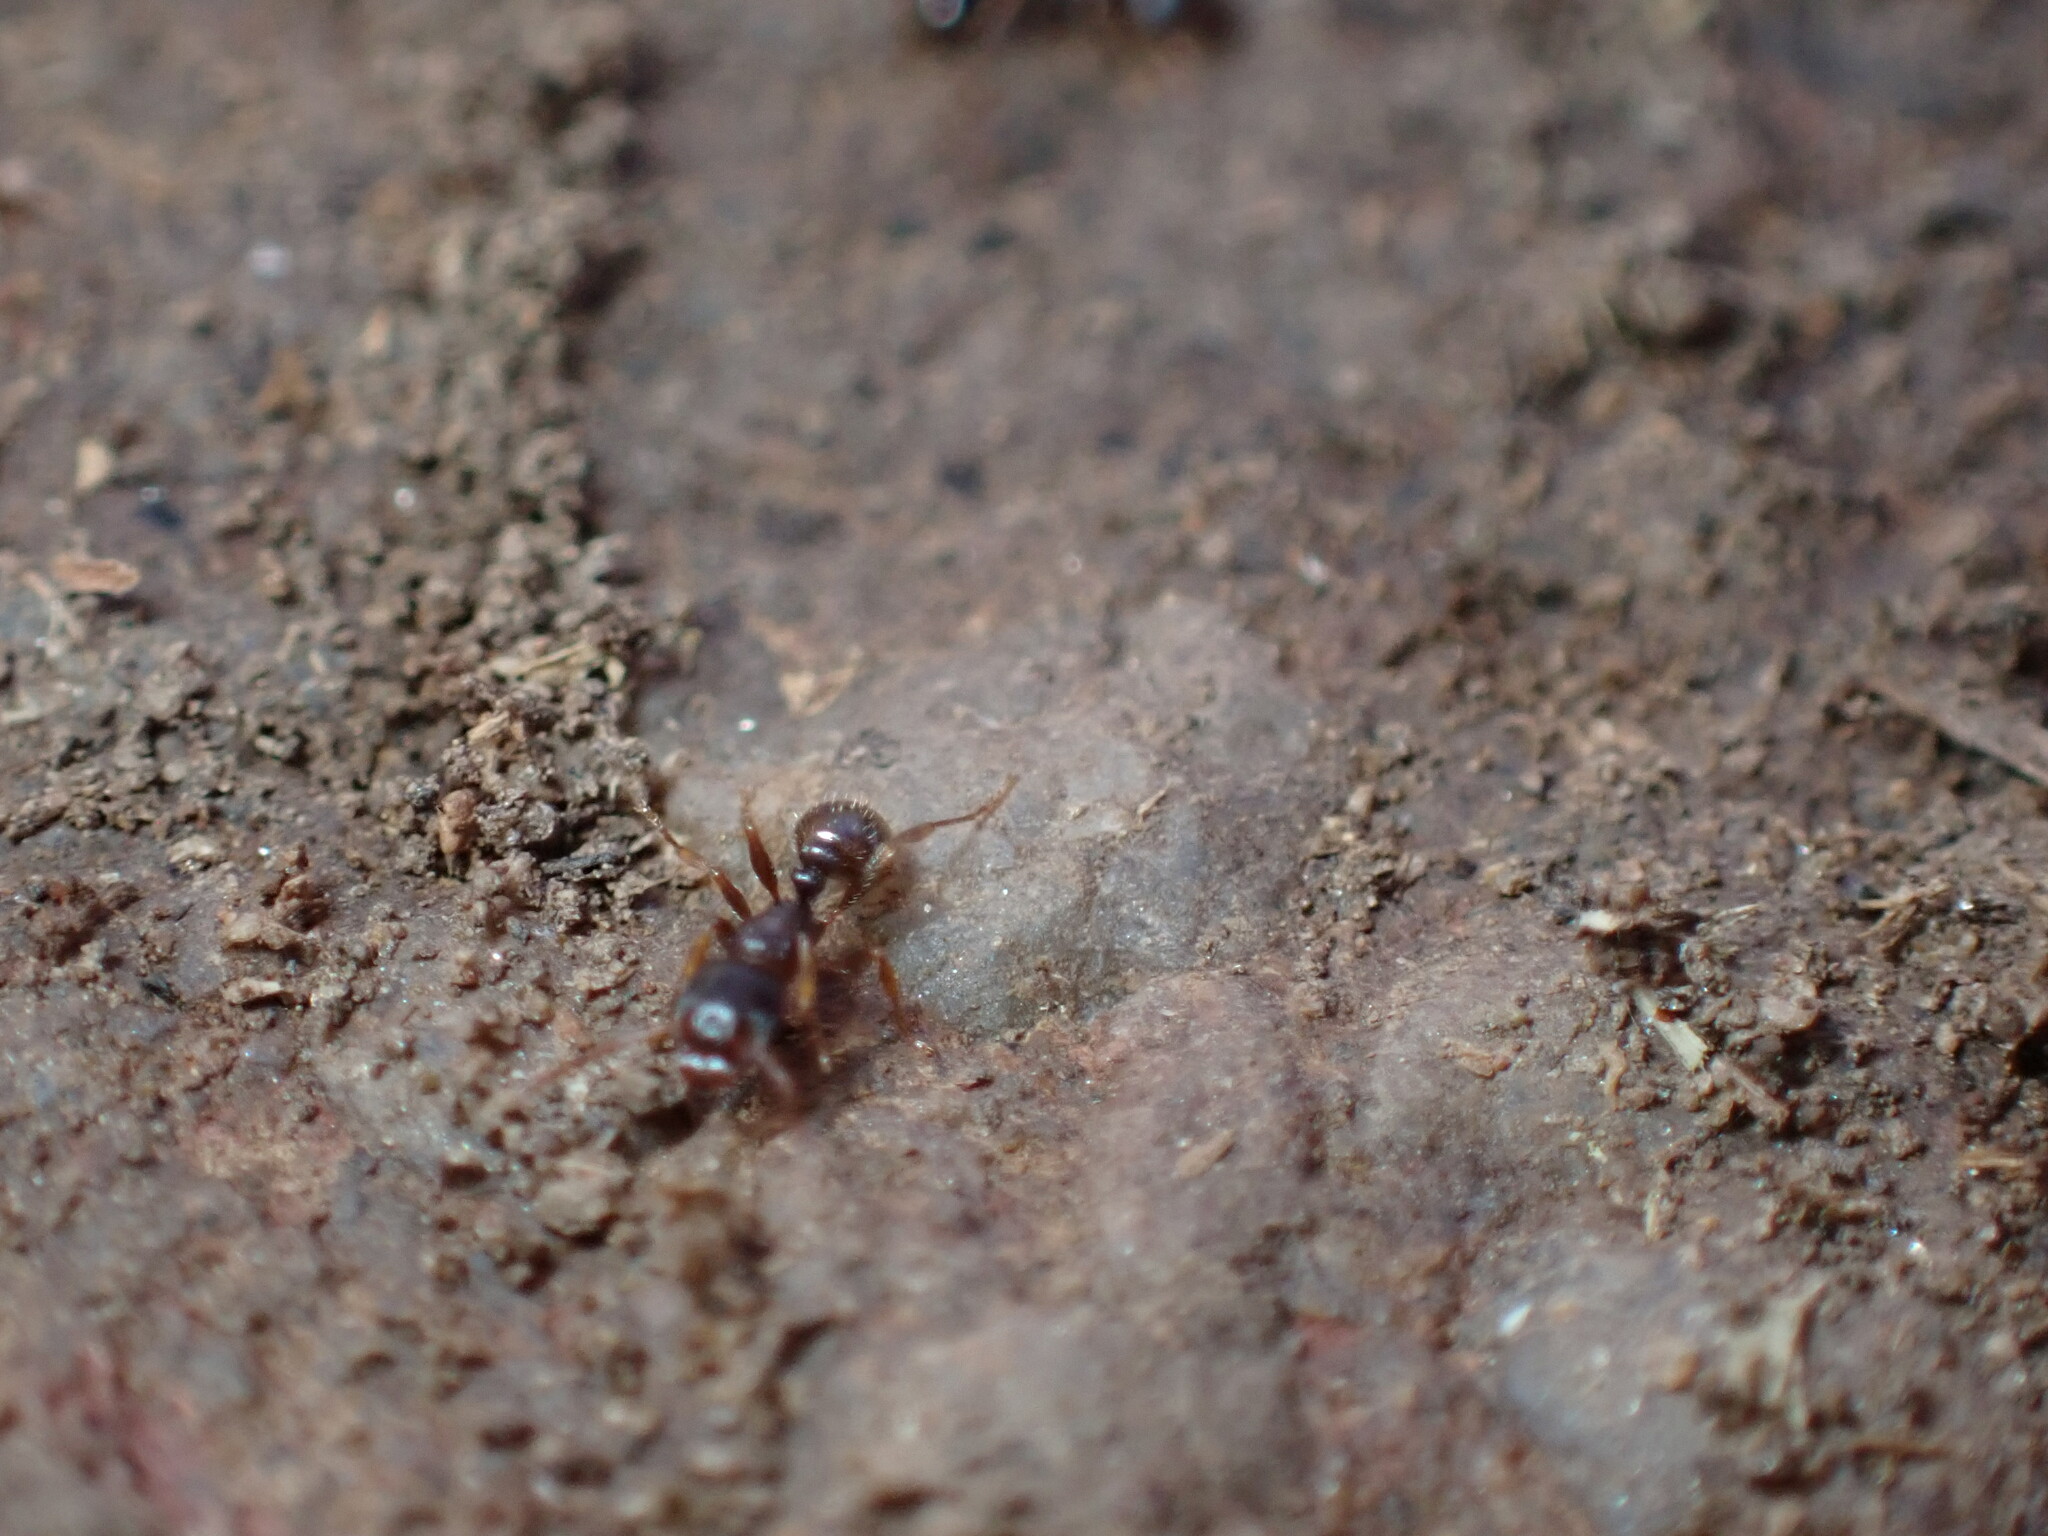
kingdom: Animalia
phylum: Arthropoda
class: Insecta
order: Hymenoptera
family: Formicidae
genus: Tetramorium
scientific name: Tetramorium immigrans
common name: Pavement ant
